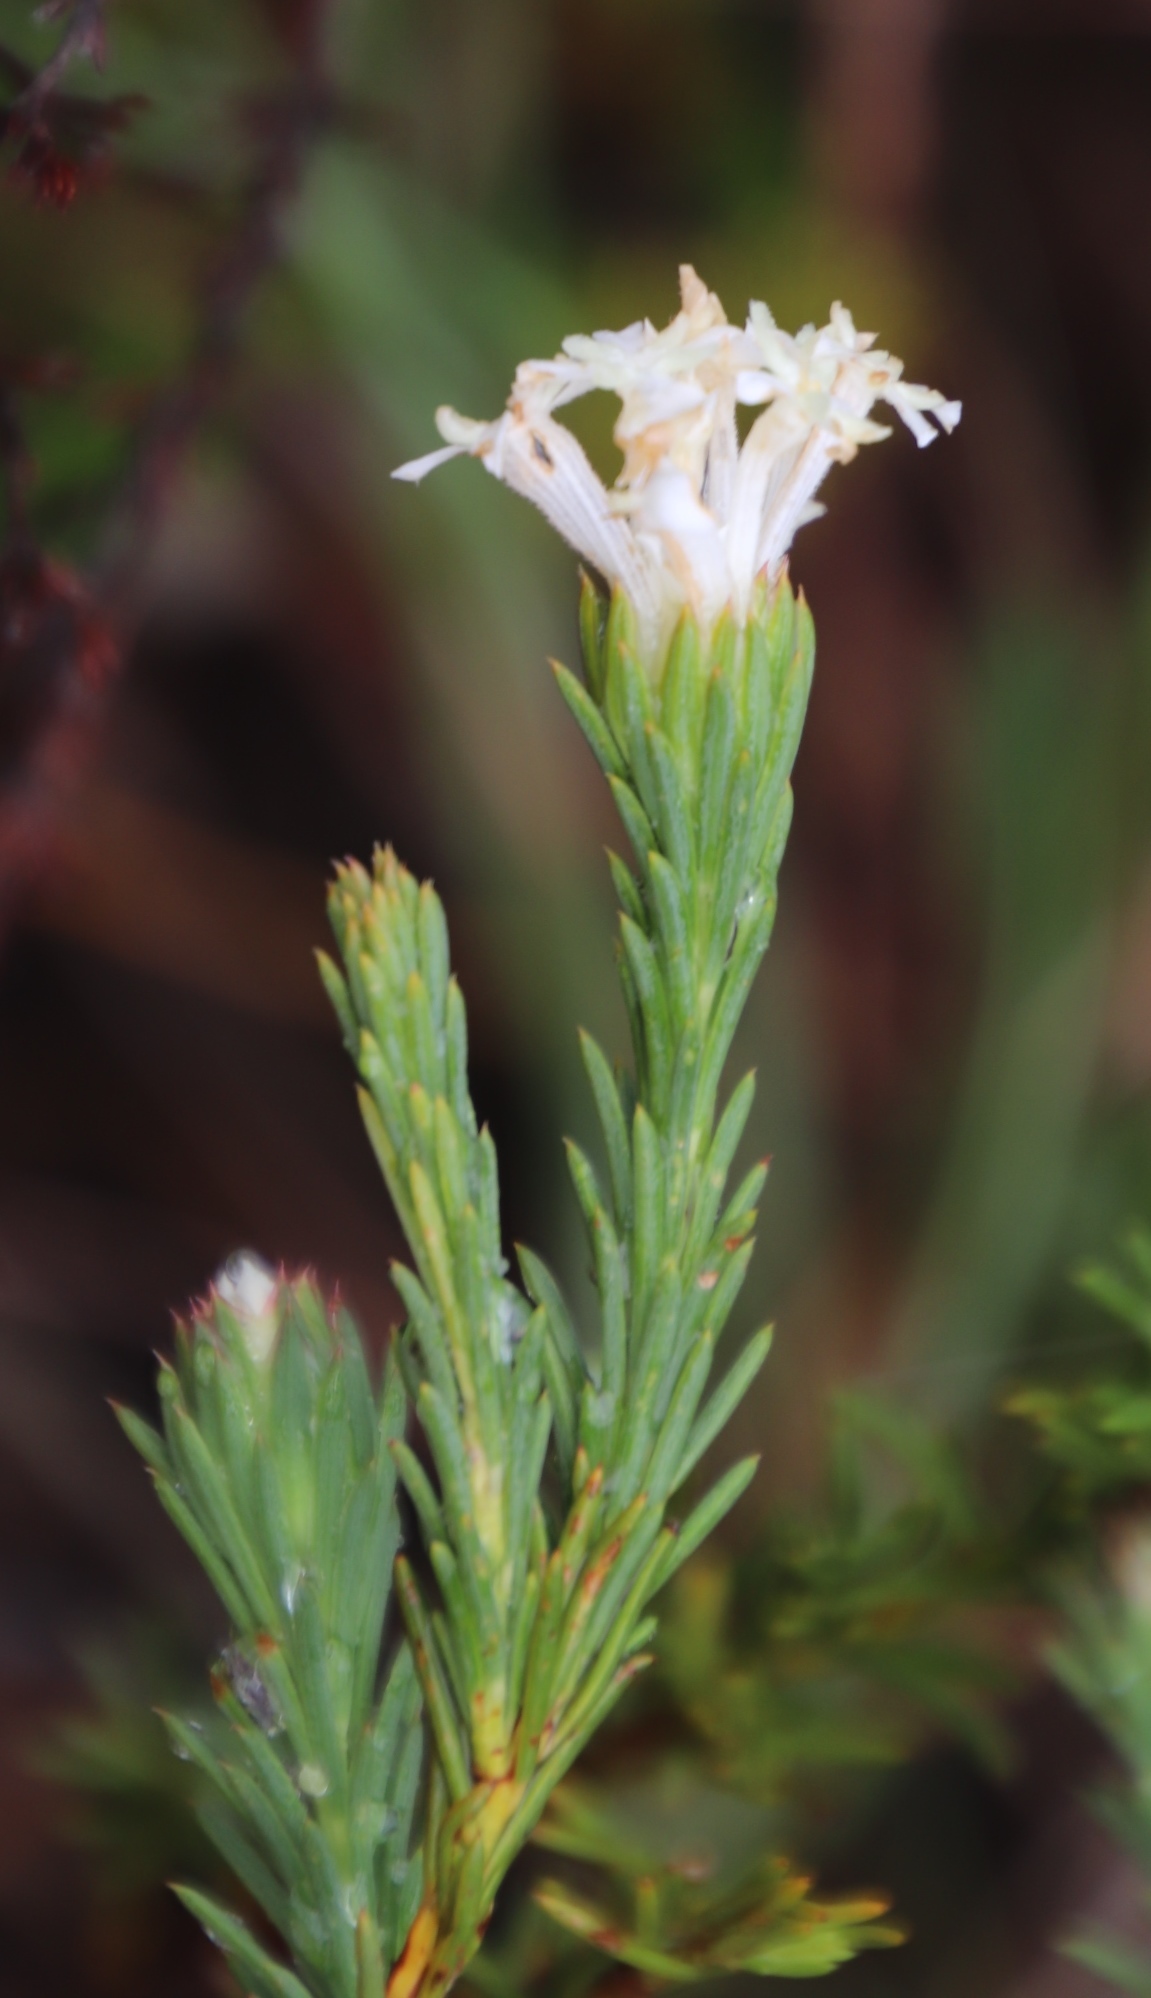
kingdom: Plantae
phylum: Tracheophyta
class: Magnoliopsida
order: Malvales
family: Thymelaeaceae
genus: Gnidia
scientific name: Gnidia pinifolia
